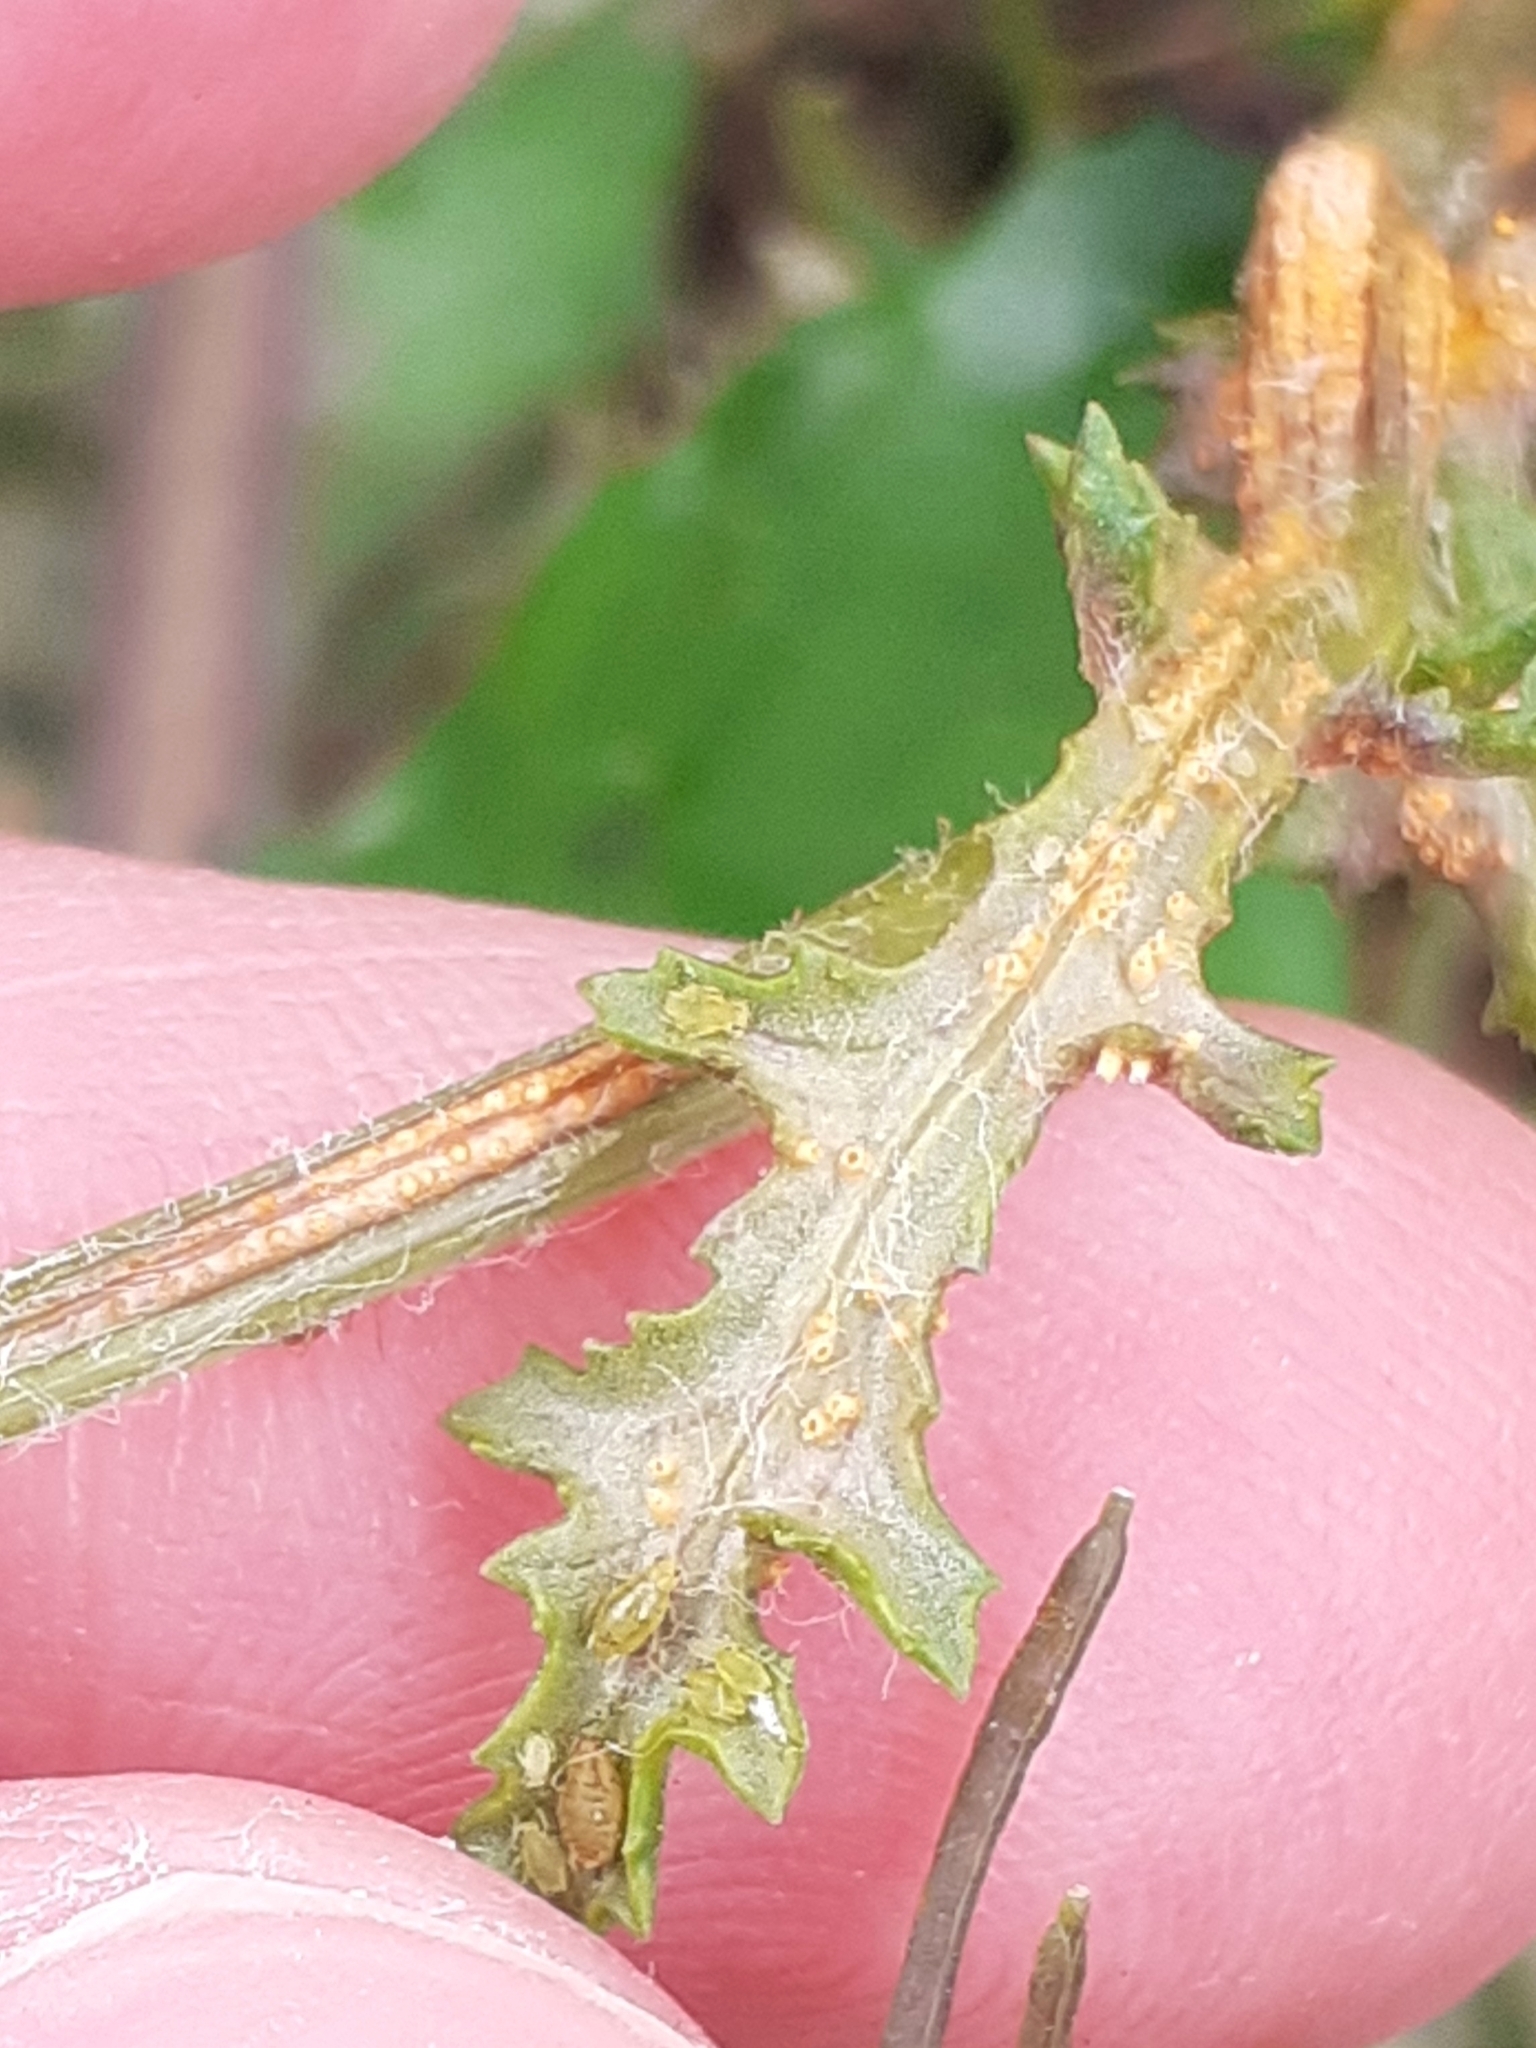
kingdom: Fungi
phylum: Basidiomycota
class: Pucciniomycetes
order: Pucciniales
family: Pucciniaceae
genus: Puccinia
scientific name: Puccinia lagenophorae
